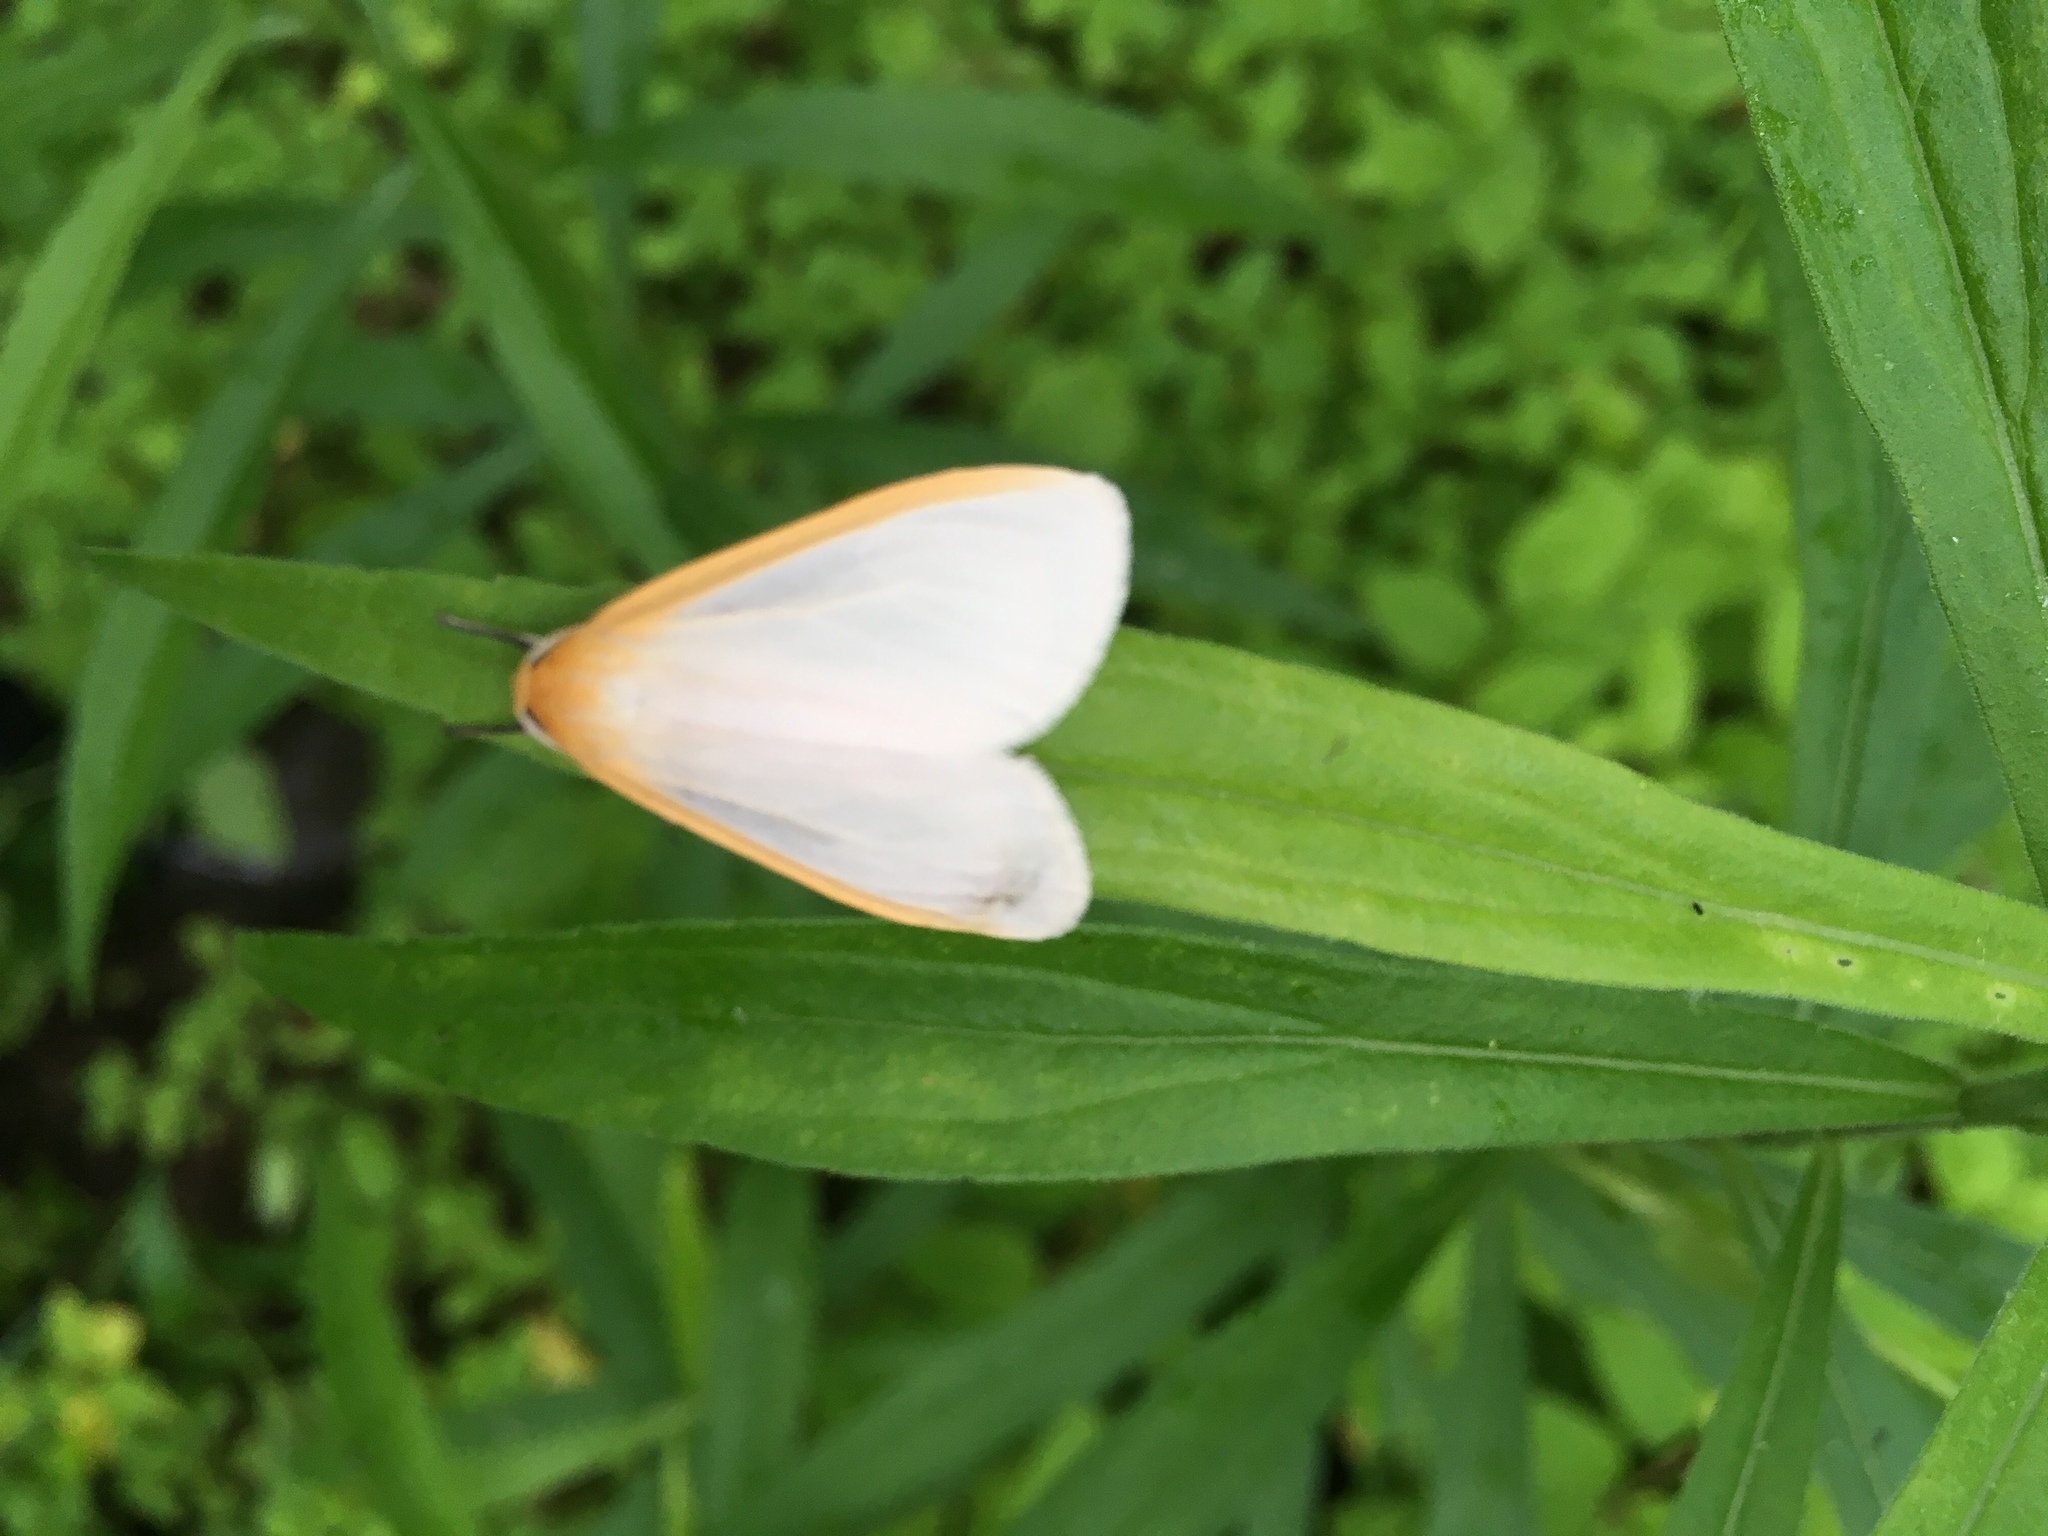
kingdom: Animalia
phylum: Arthropoda
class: Insecta
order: Lepidoptera
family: Erebidae
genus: Cycnia
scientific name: Cycnia tenera
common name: Delicate cycnia moth
